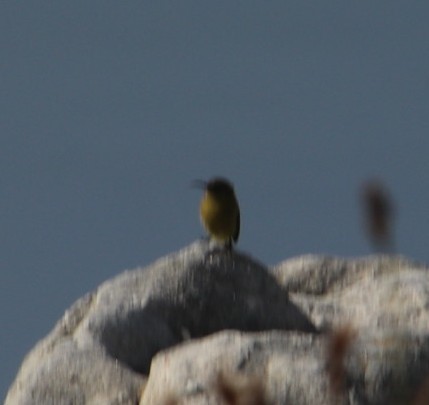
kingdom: Animalia
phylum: Chordata
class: Aves
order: Passeriformes
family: Nectariniidae
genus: Anthobaphes
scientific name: Anthobaphes violacea
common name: Orange-breasted sunbird
